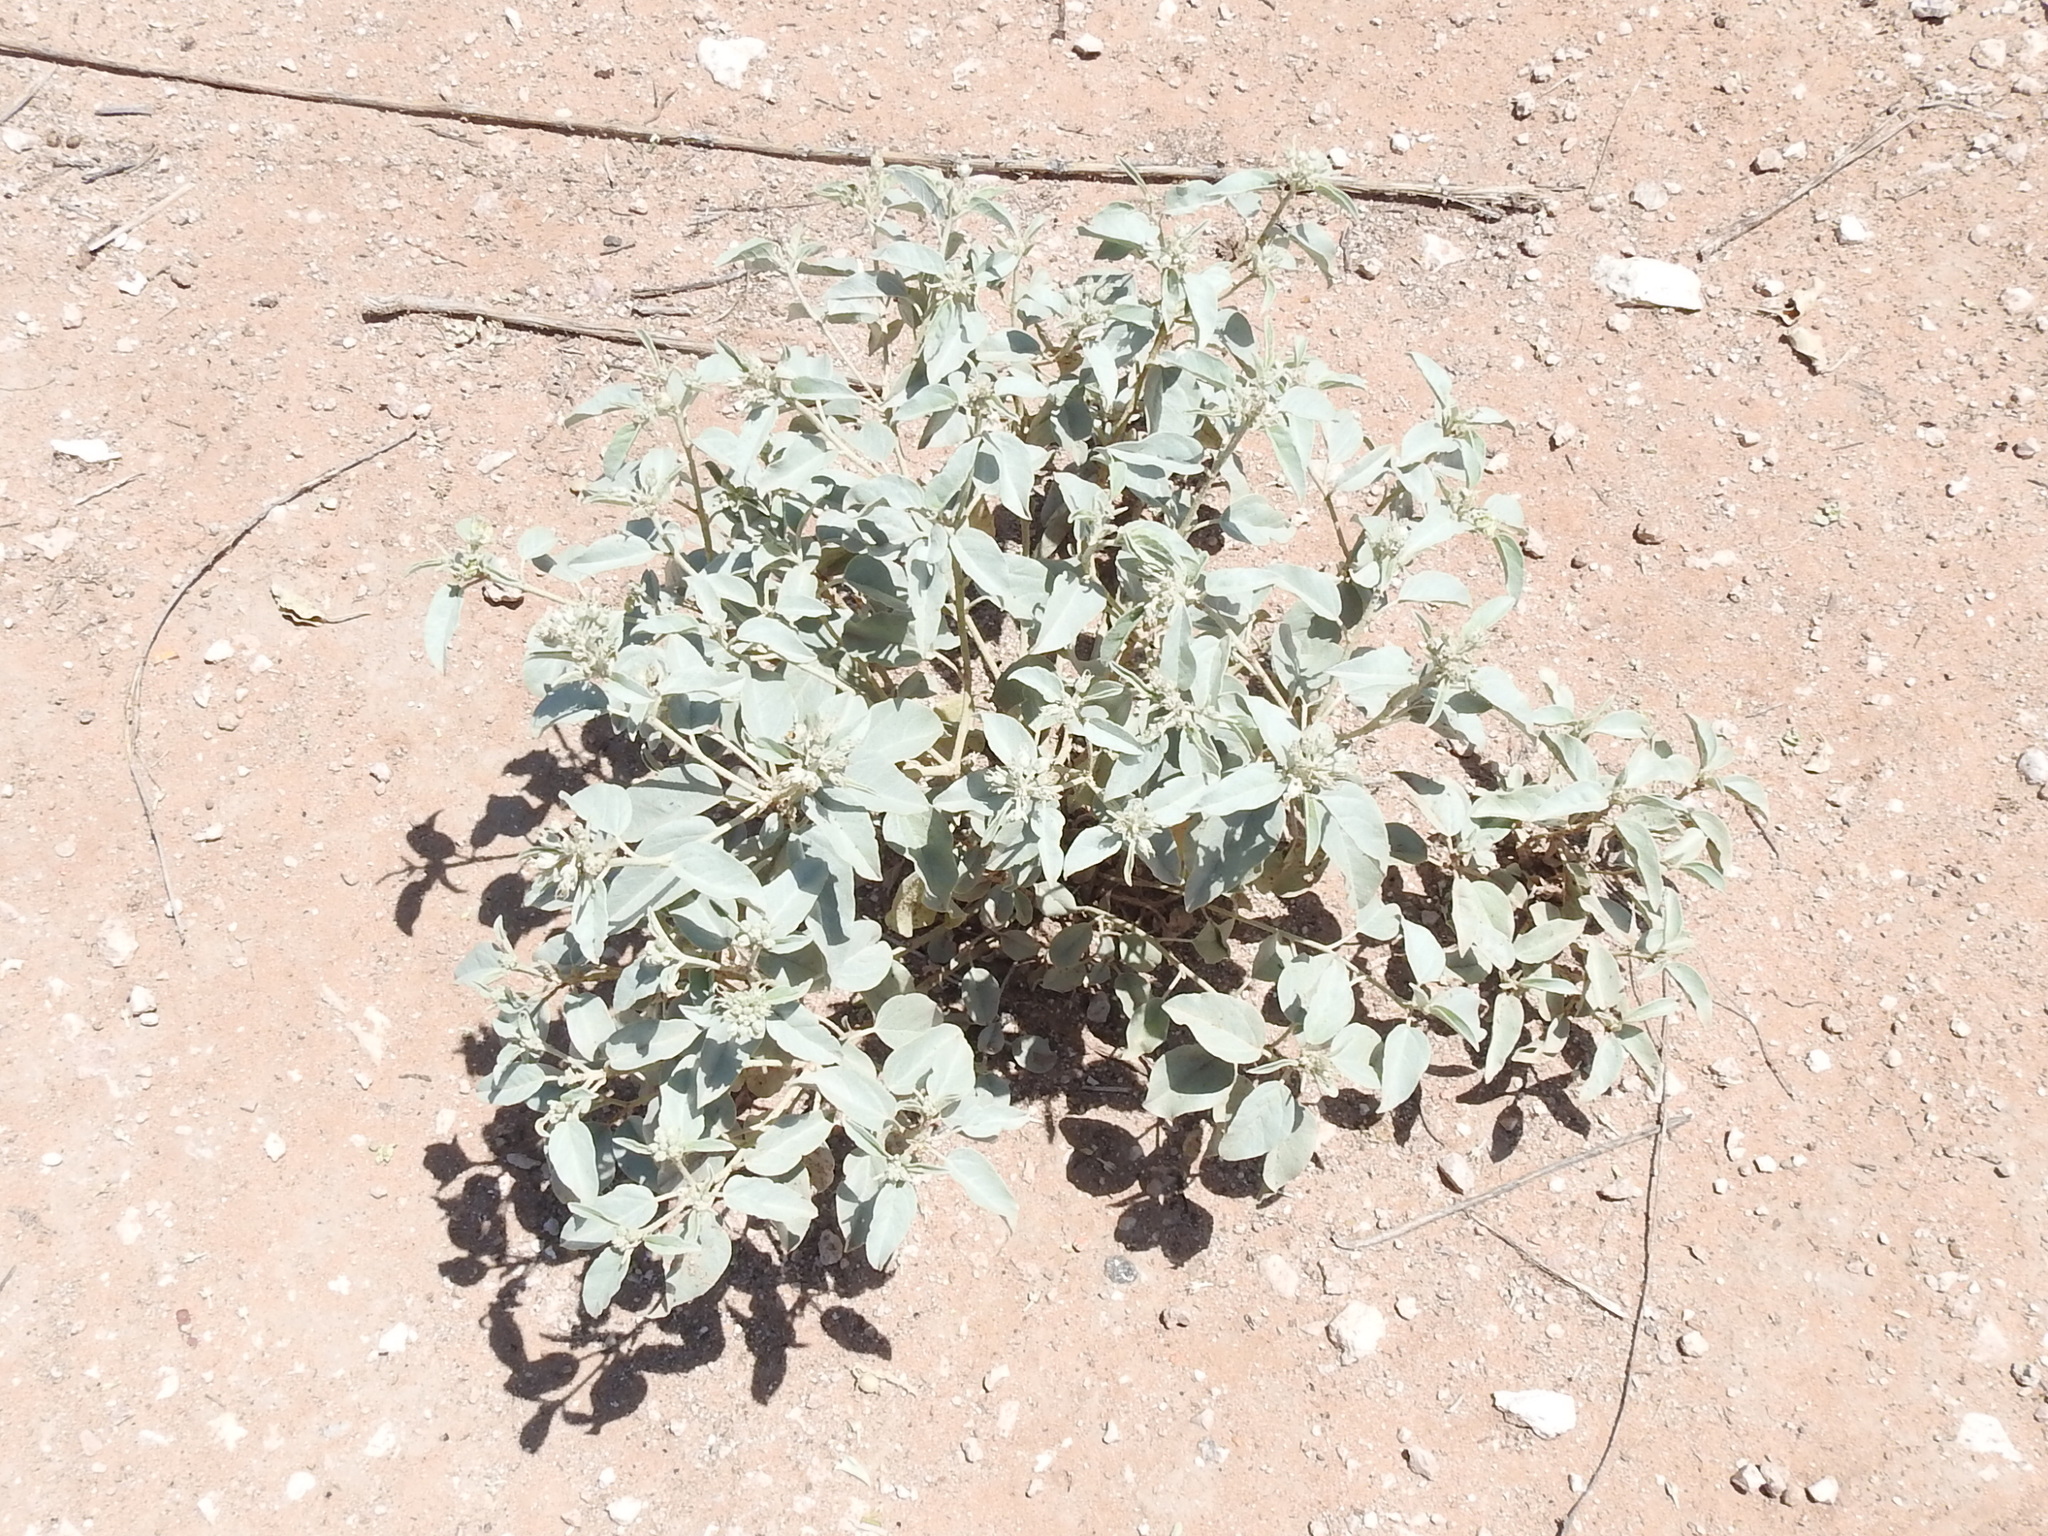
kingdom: Plantae
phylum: Tracheophyta
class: Magnoliopsida
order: Malpighiales
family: Euphorbiaceae
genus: Croton
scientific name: Croton pottsii
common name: Leatherweed
